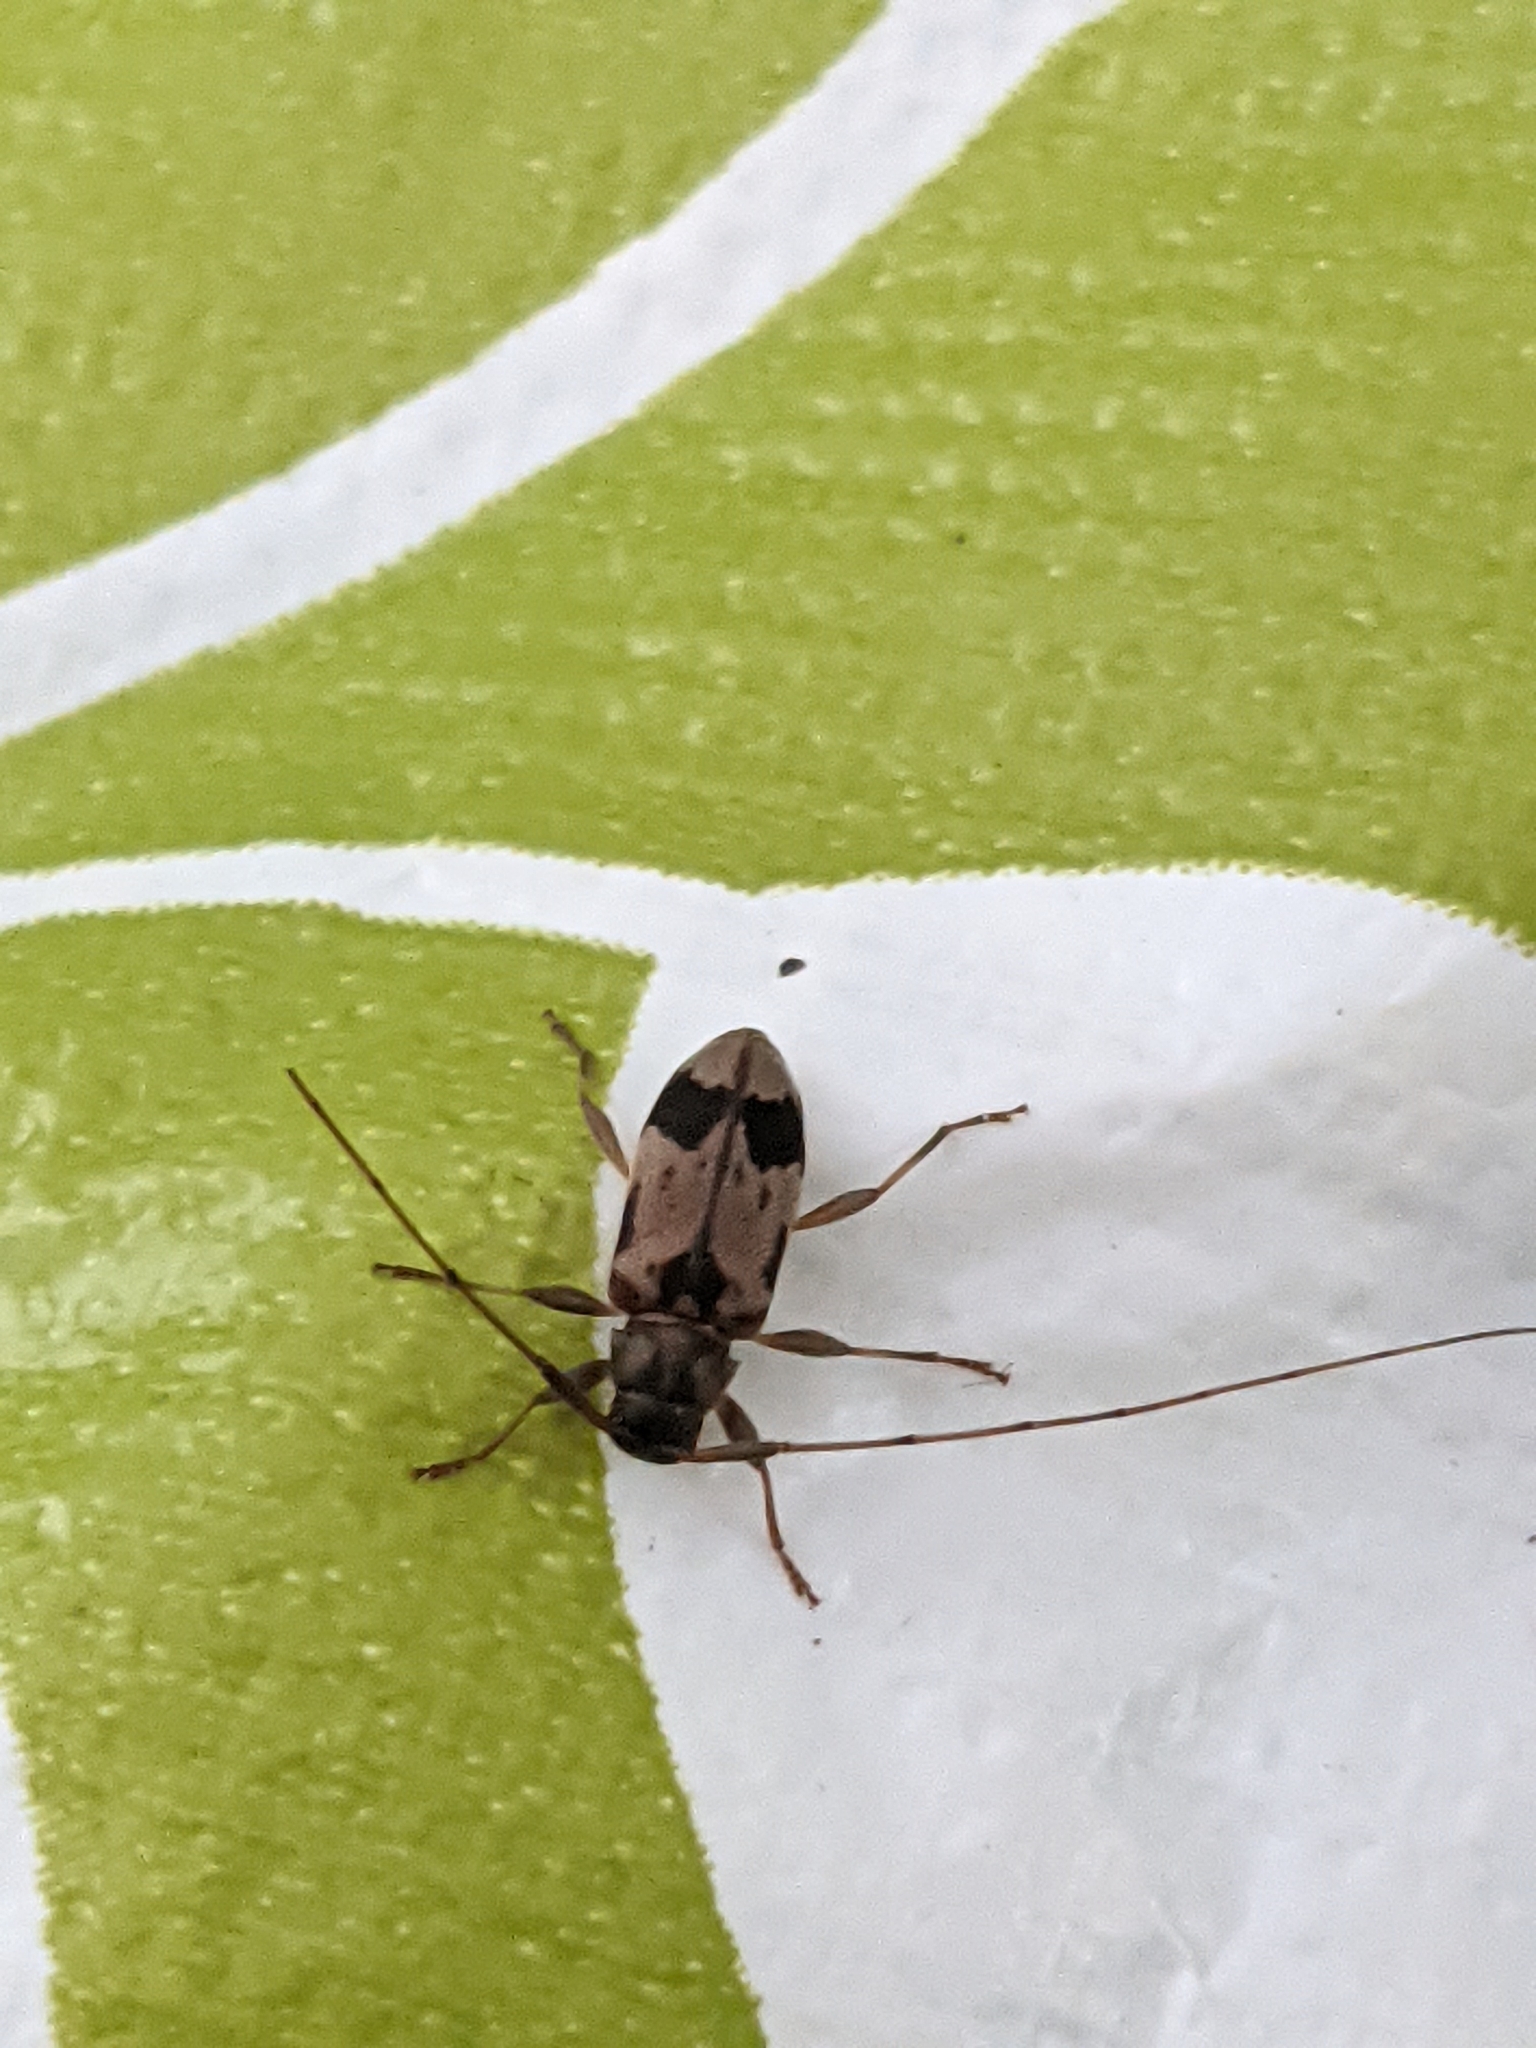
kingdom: Animalia
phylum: Arthropoda
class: Insecta
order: Coleoptera
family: Cerambycidae
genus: Urgleptes
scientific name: Urgleptes querci
